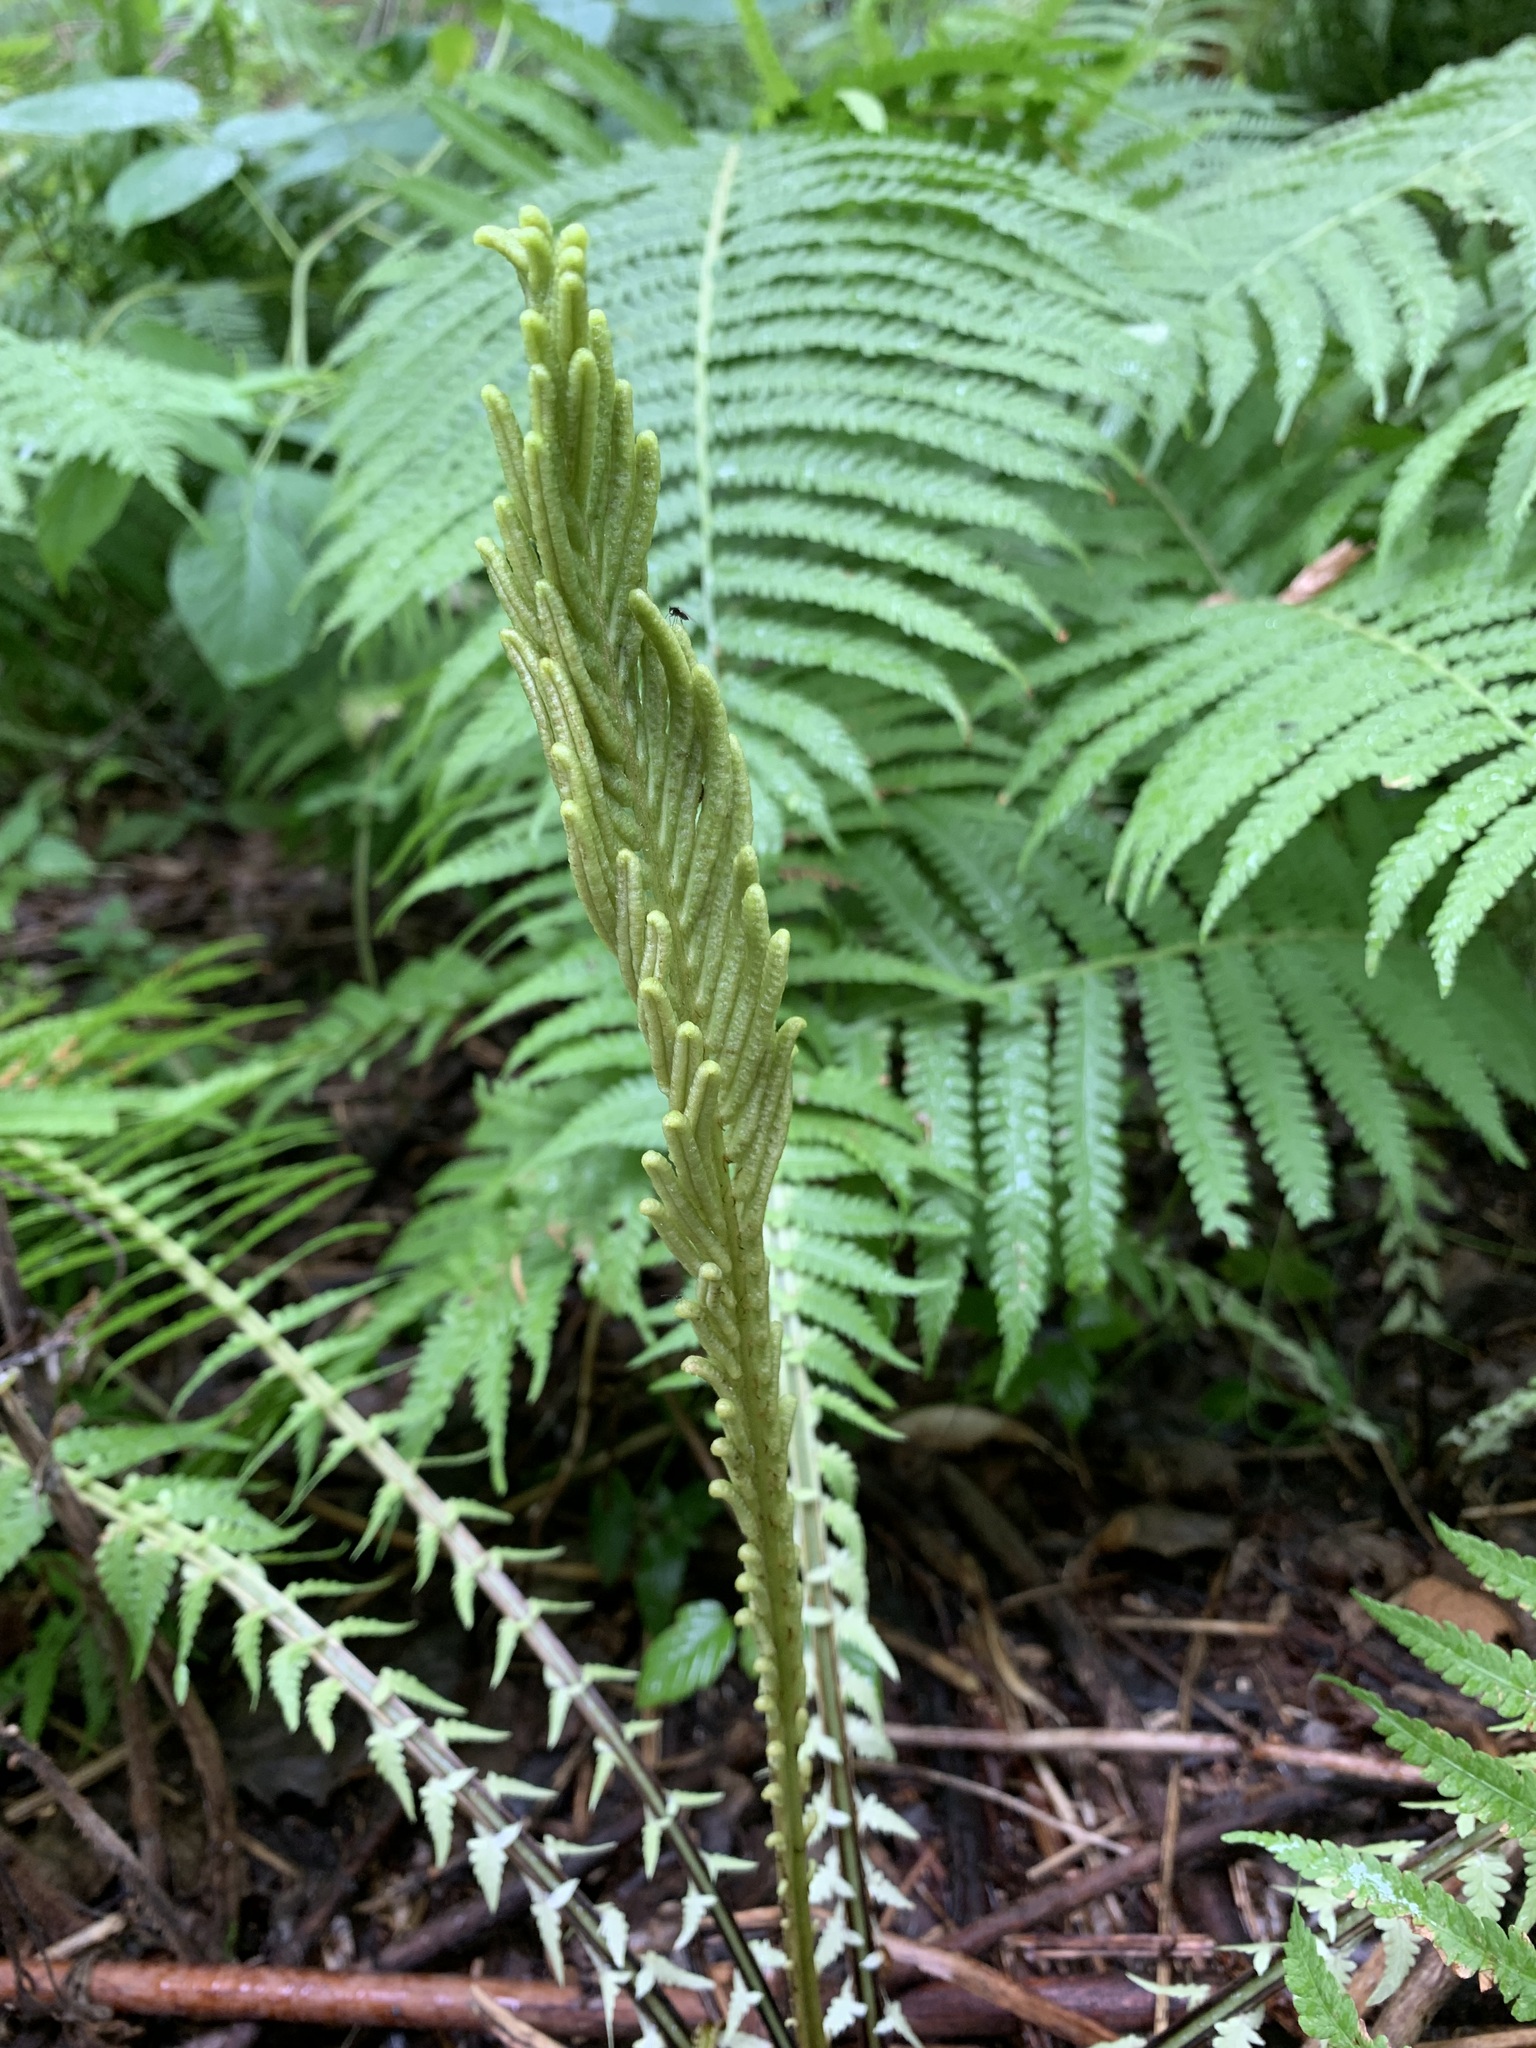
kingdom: Plantae
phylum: Tracheophyta
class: Polypodiopsida
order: Polypodiales
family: Onocleaceae
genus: Matteuccia
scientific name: Matteuccia struthiopteris
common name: Ostrich fern
